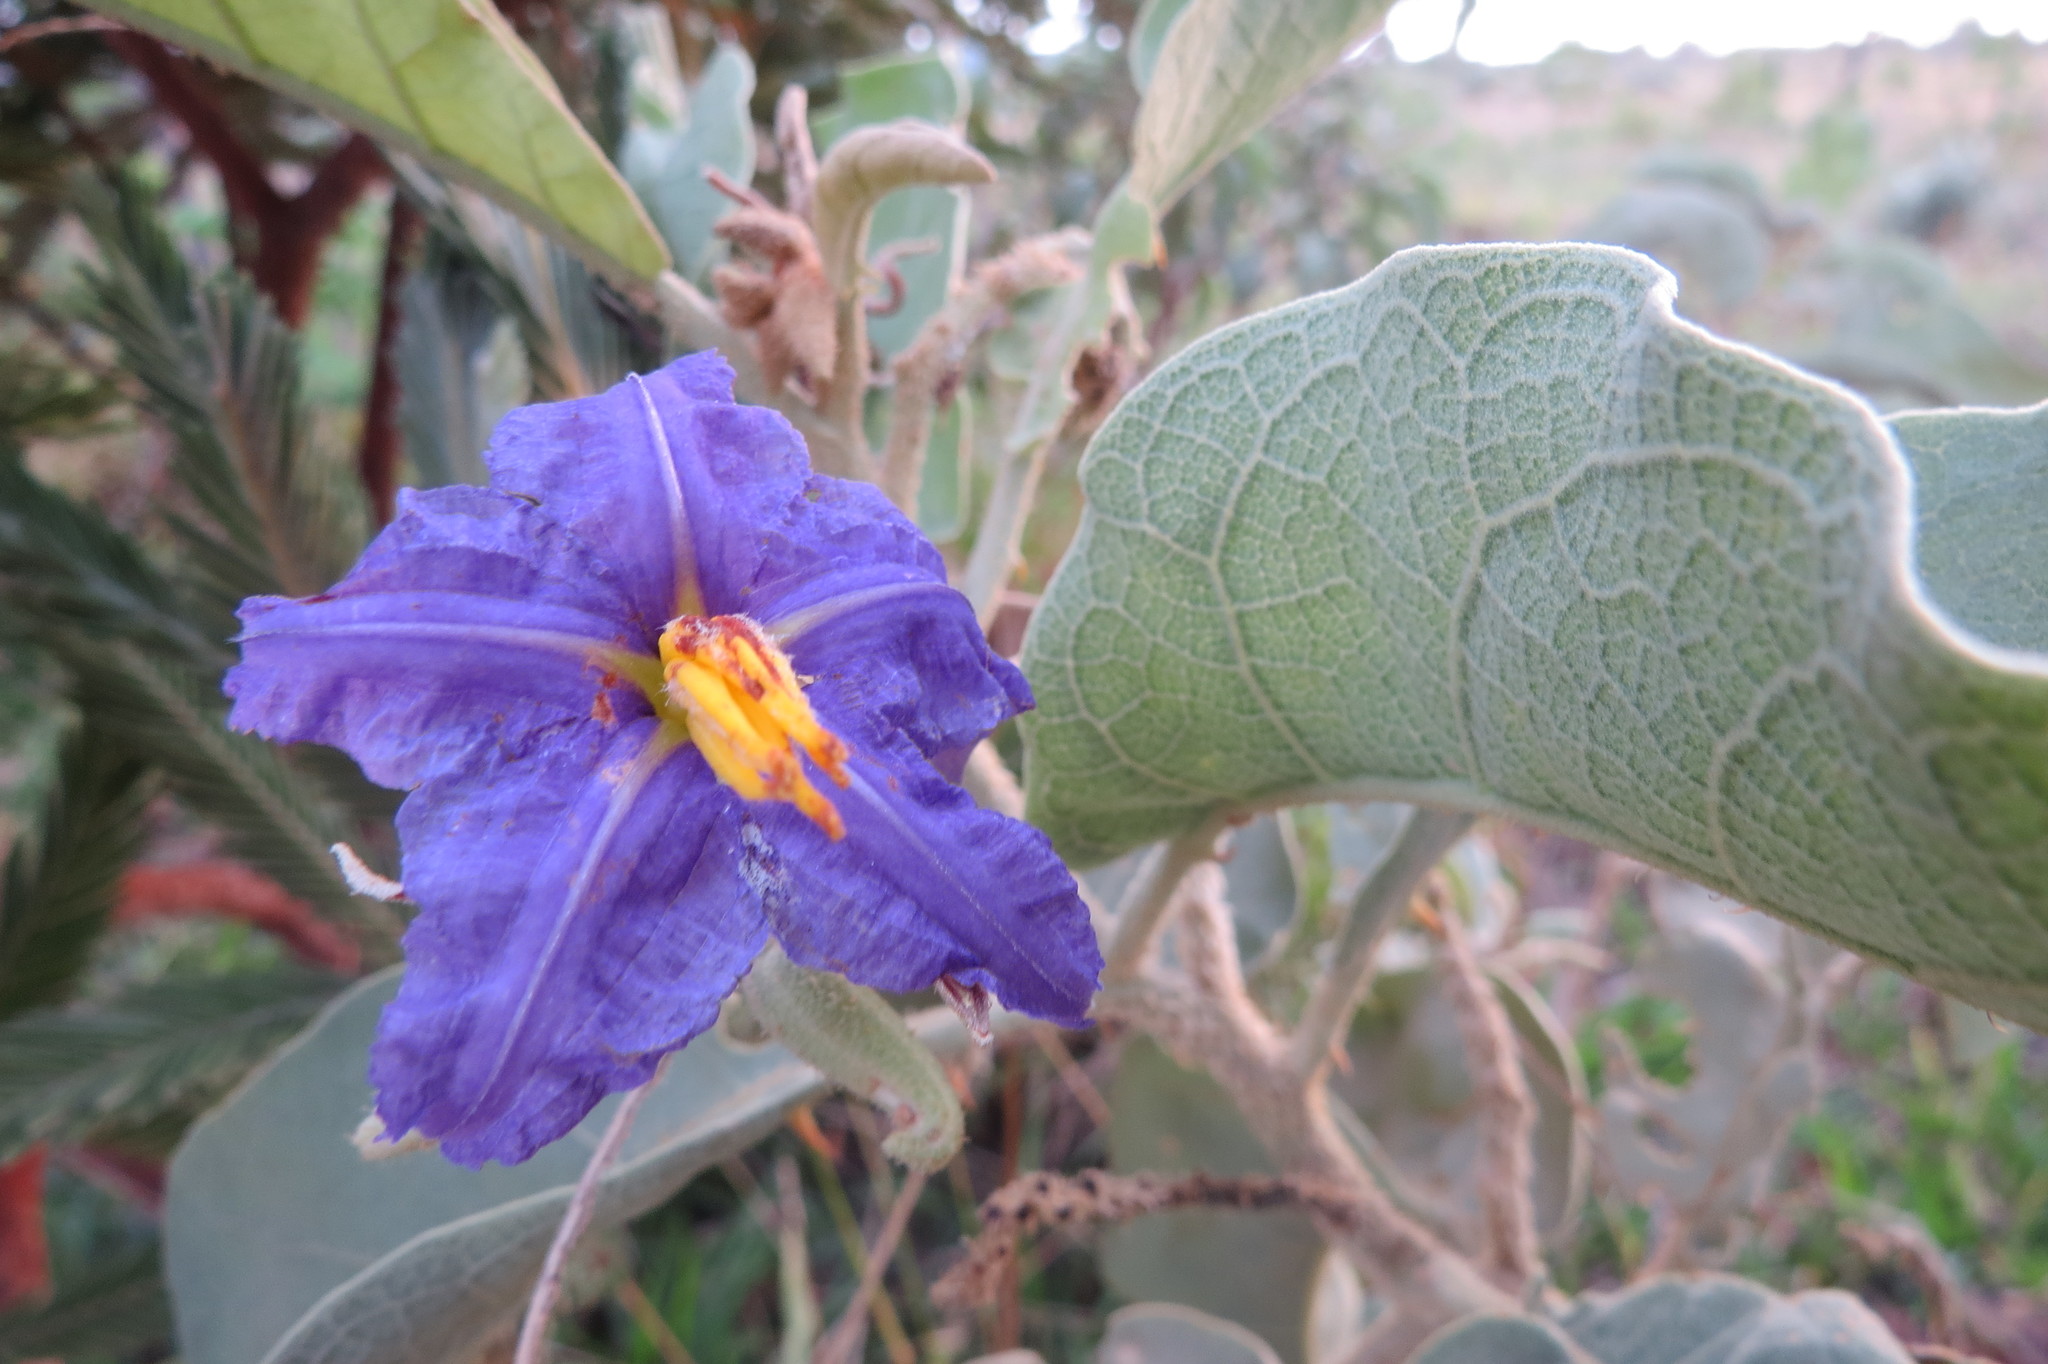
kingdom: Plantae
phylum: Tracheophyta
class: Magnoliopsida
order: Solanales
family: Solanaceae
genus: Solanum
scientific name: Solanum lycocarpum
